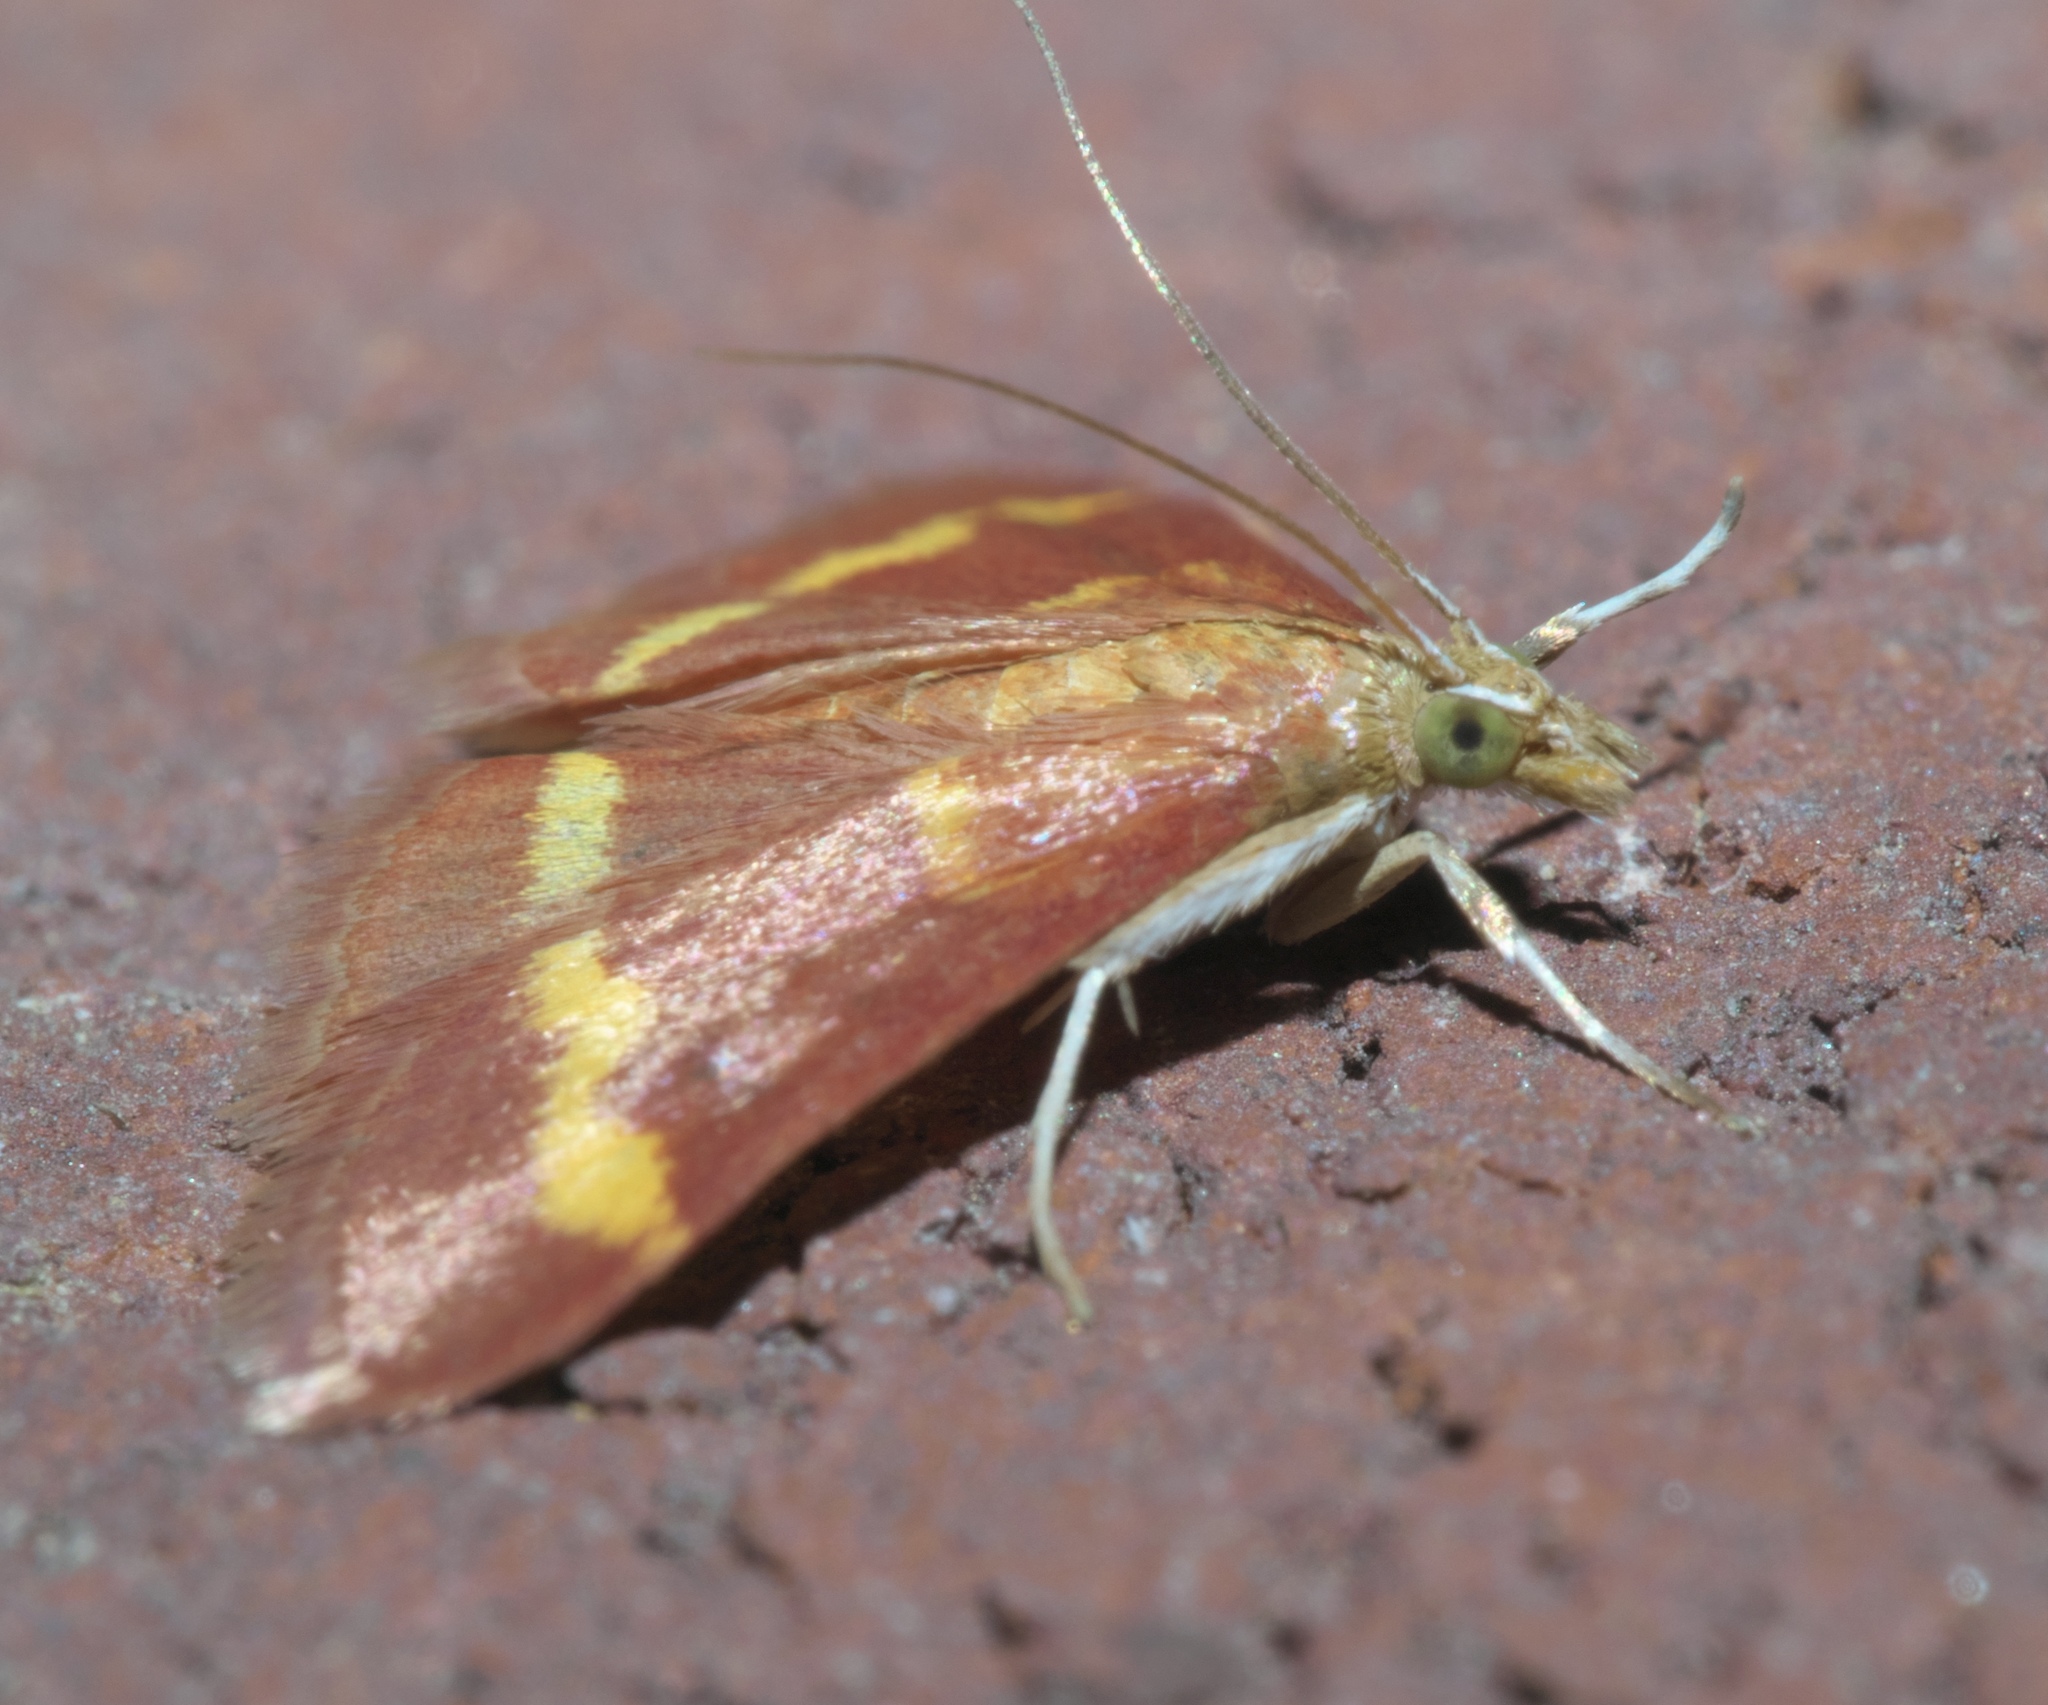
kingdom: Animalia
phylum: Arthropoda
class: Insecta
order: Lepidoptera
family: Crambidae
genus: Pyrausta
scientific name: Pyrausta pseuderosnealis
